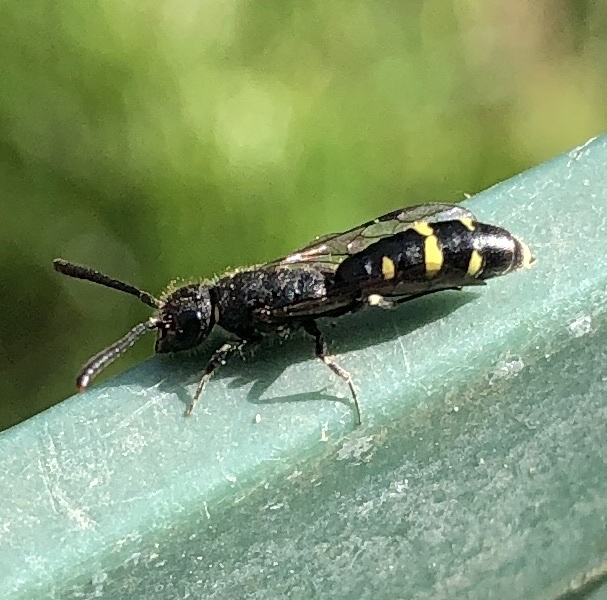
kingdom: Animalia
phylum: Arthropoda
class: Insecta
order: Hymenoptera
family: Sapygidae
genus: Monosapyga
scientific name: Monosapyga clavicornis
